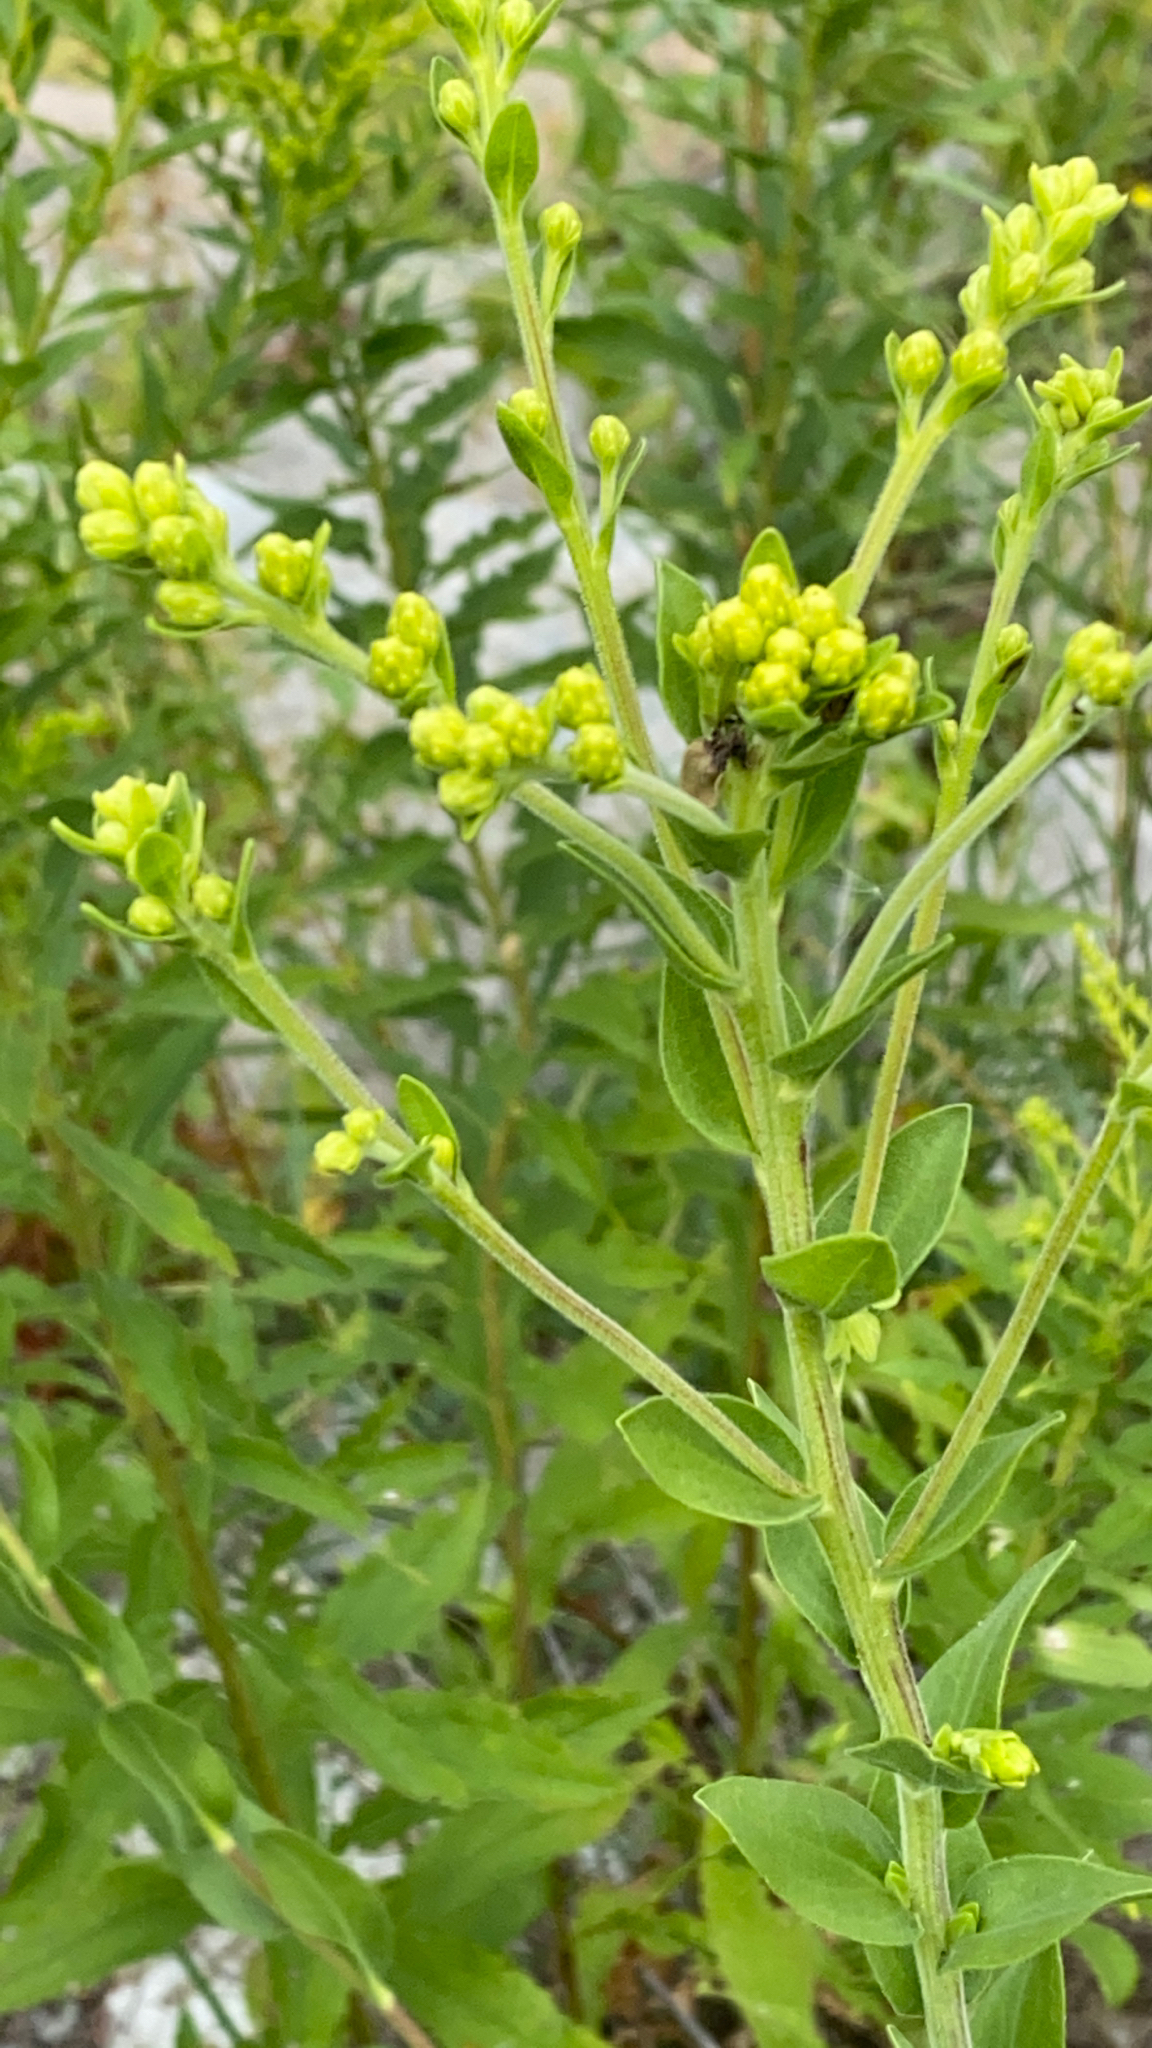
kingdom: Plantae
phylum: Tracheophyta
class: Magnoliopsida
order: Asterales
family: Asteraceae
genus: Solidago
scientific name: Solidago rigida
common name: Rigid goldenrod
